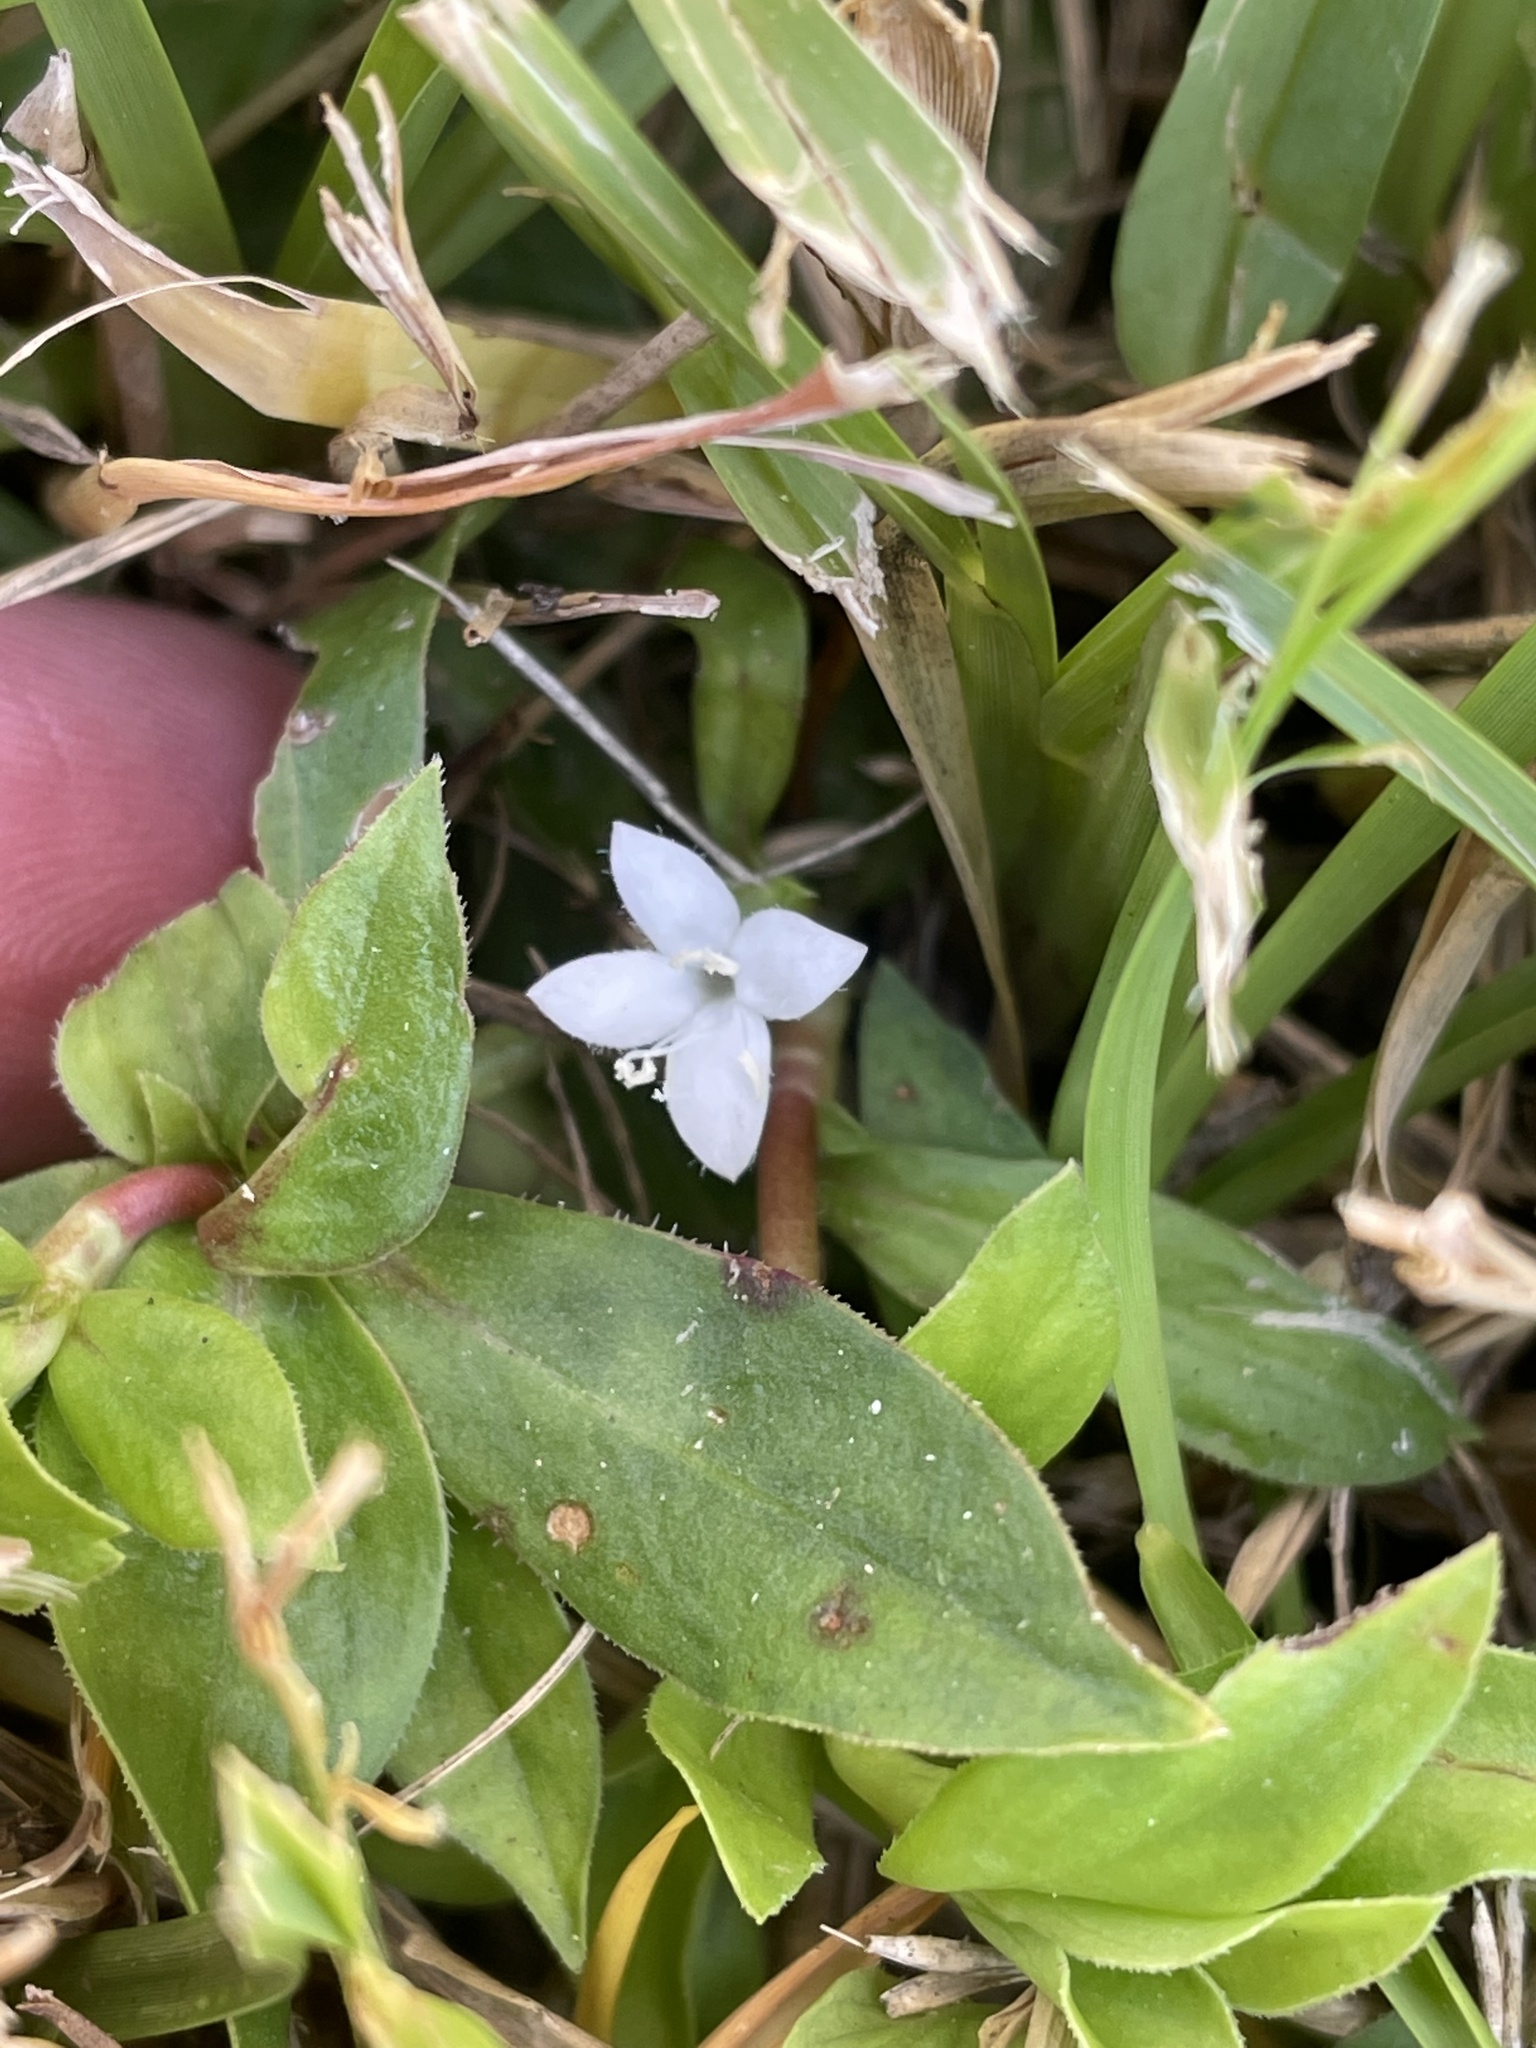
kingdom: Plantae
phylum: Tracheophyta
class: Magnoliopsida
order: Gentianales
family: Rubiaceae
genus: Diodia
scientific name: Diodia virginiana
